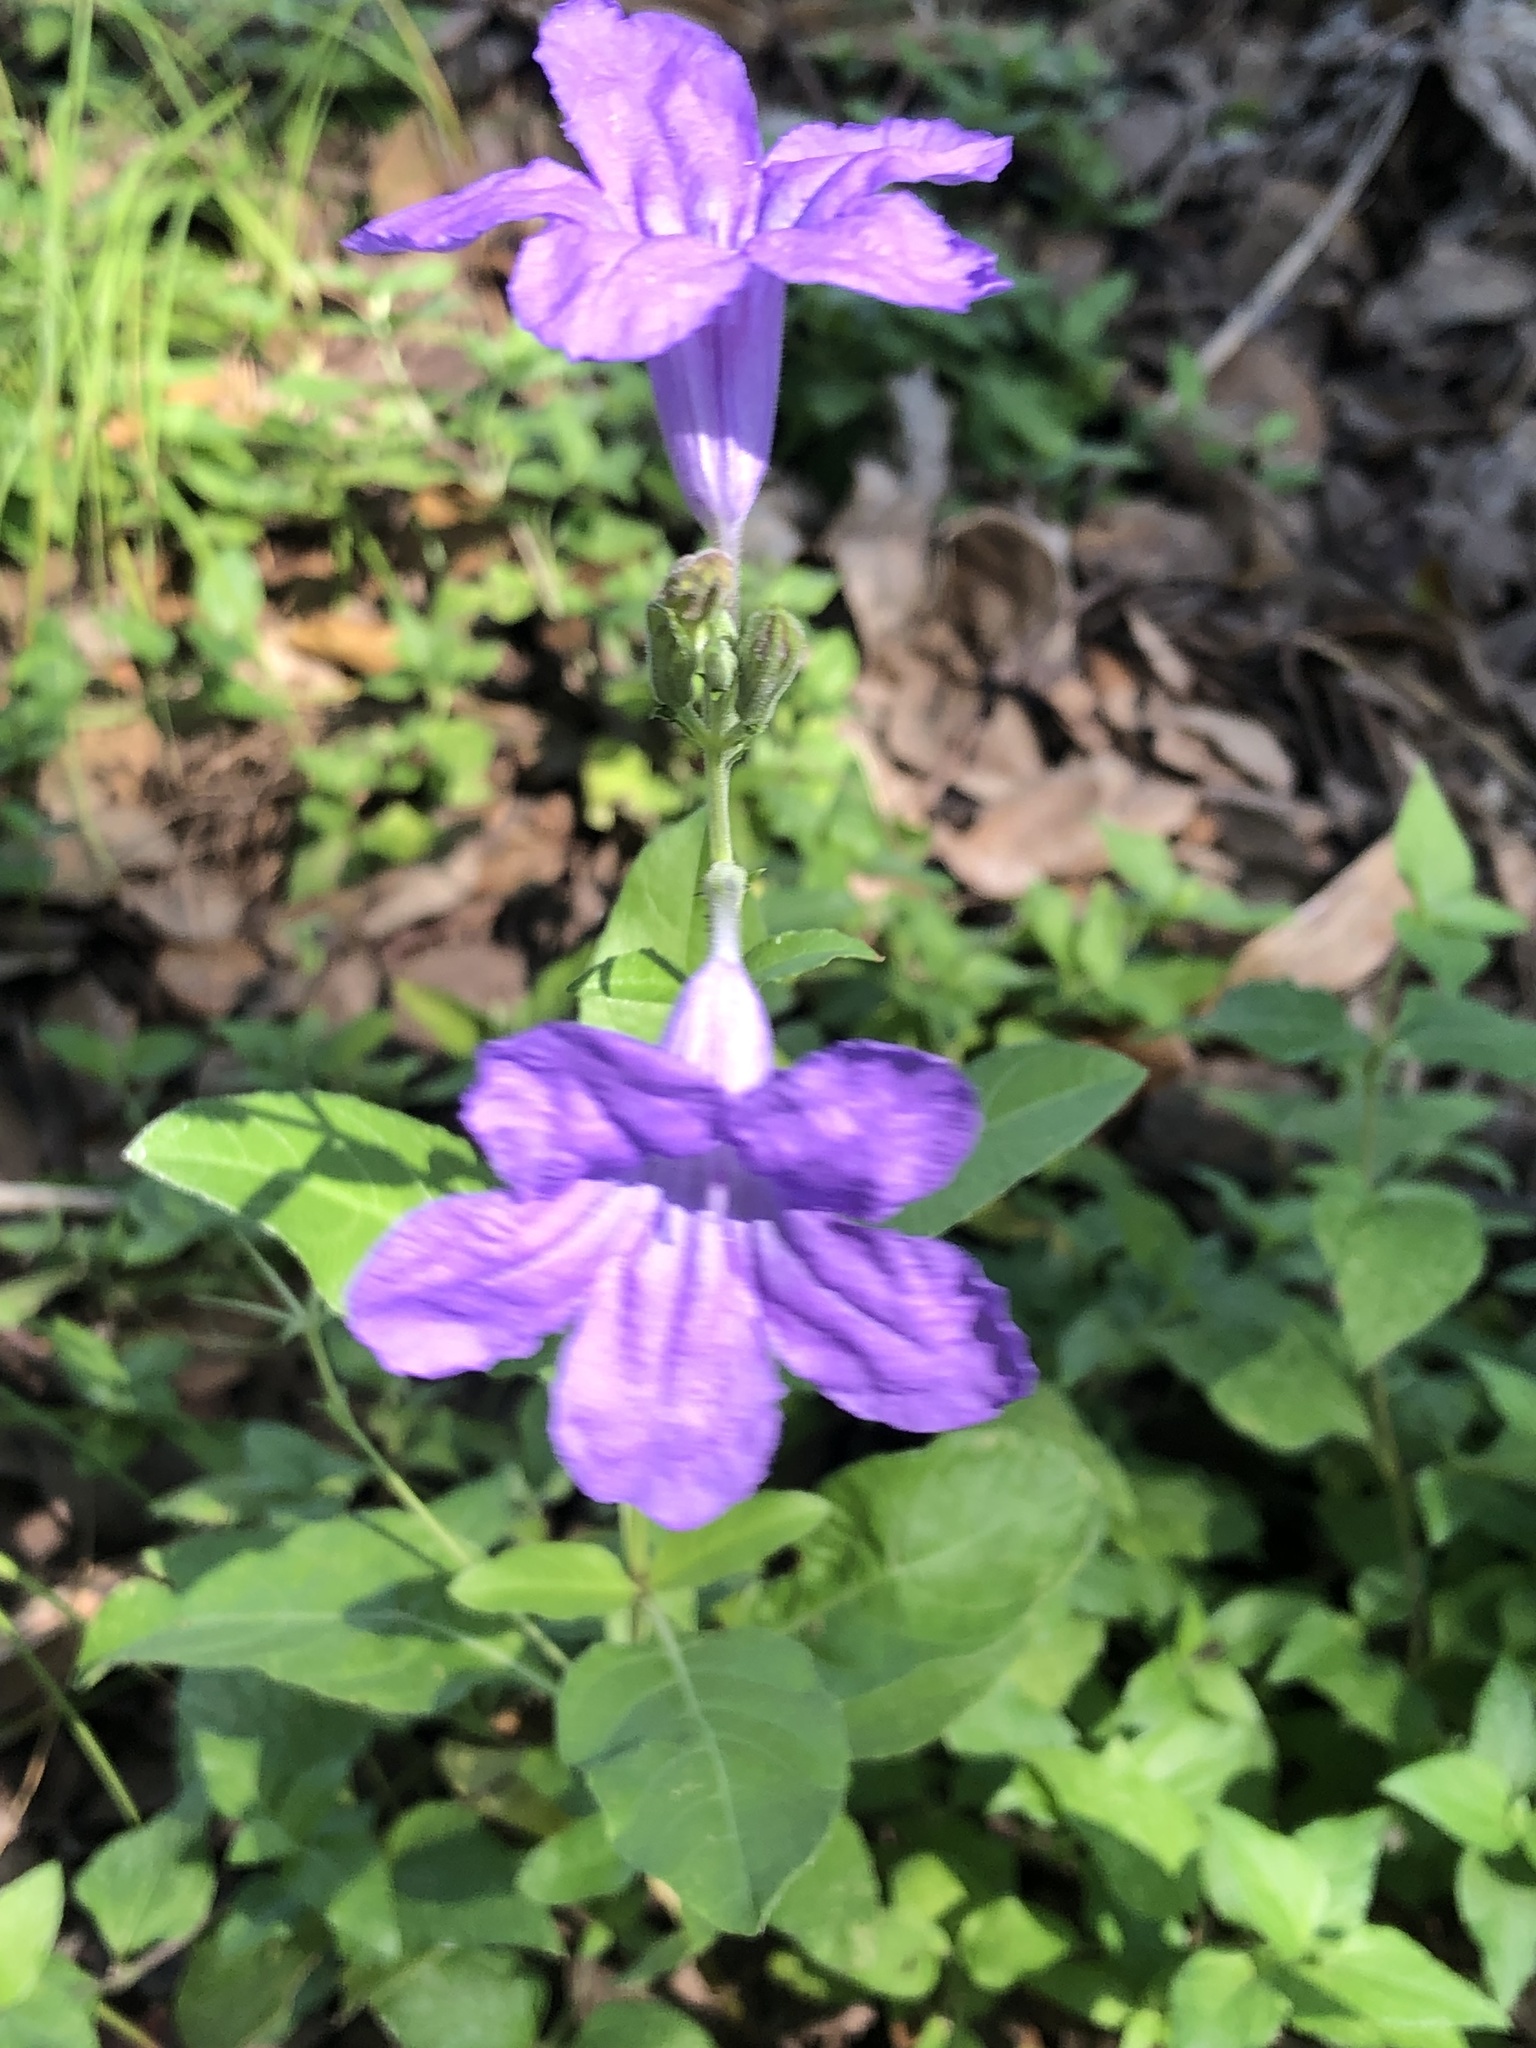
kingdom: Plantae
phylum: Tracheophyta
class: Magnoliopsida
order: Lamiales
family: Acanthaceae
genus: Ruellia
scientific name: Ruellia ciliatiflora
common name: Hairyflower wild petunia
